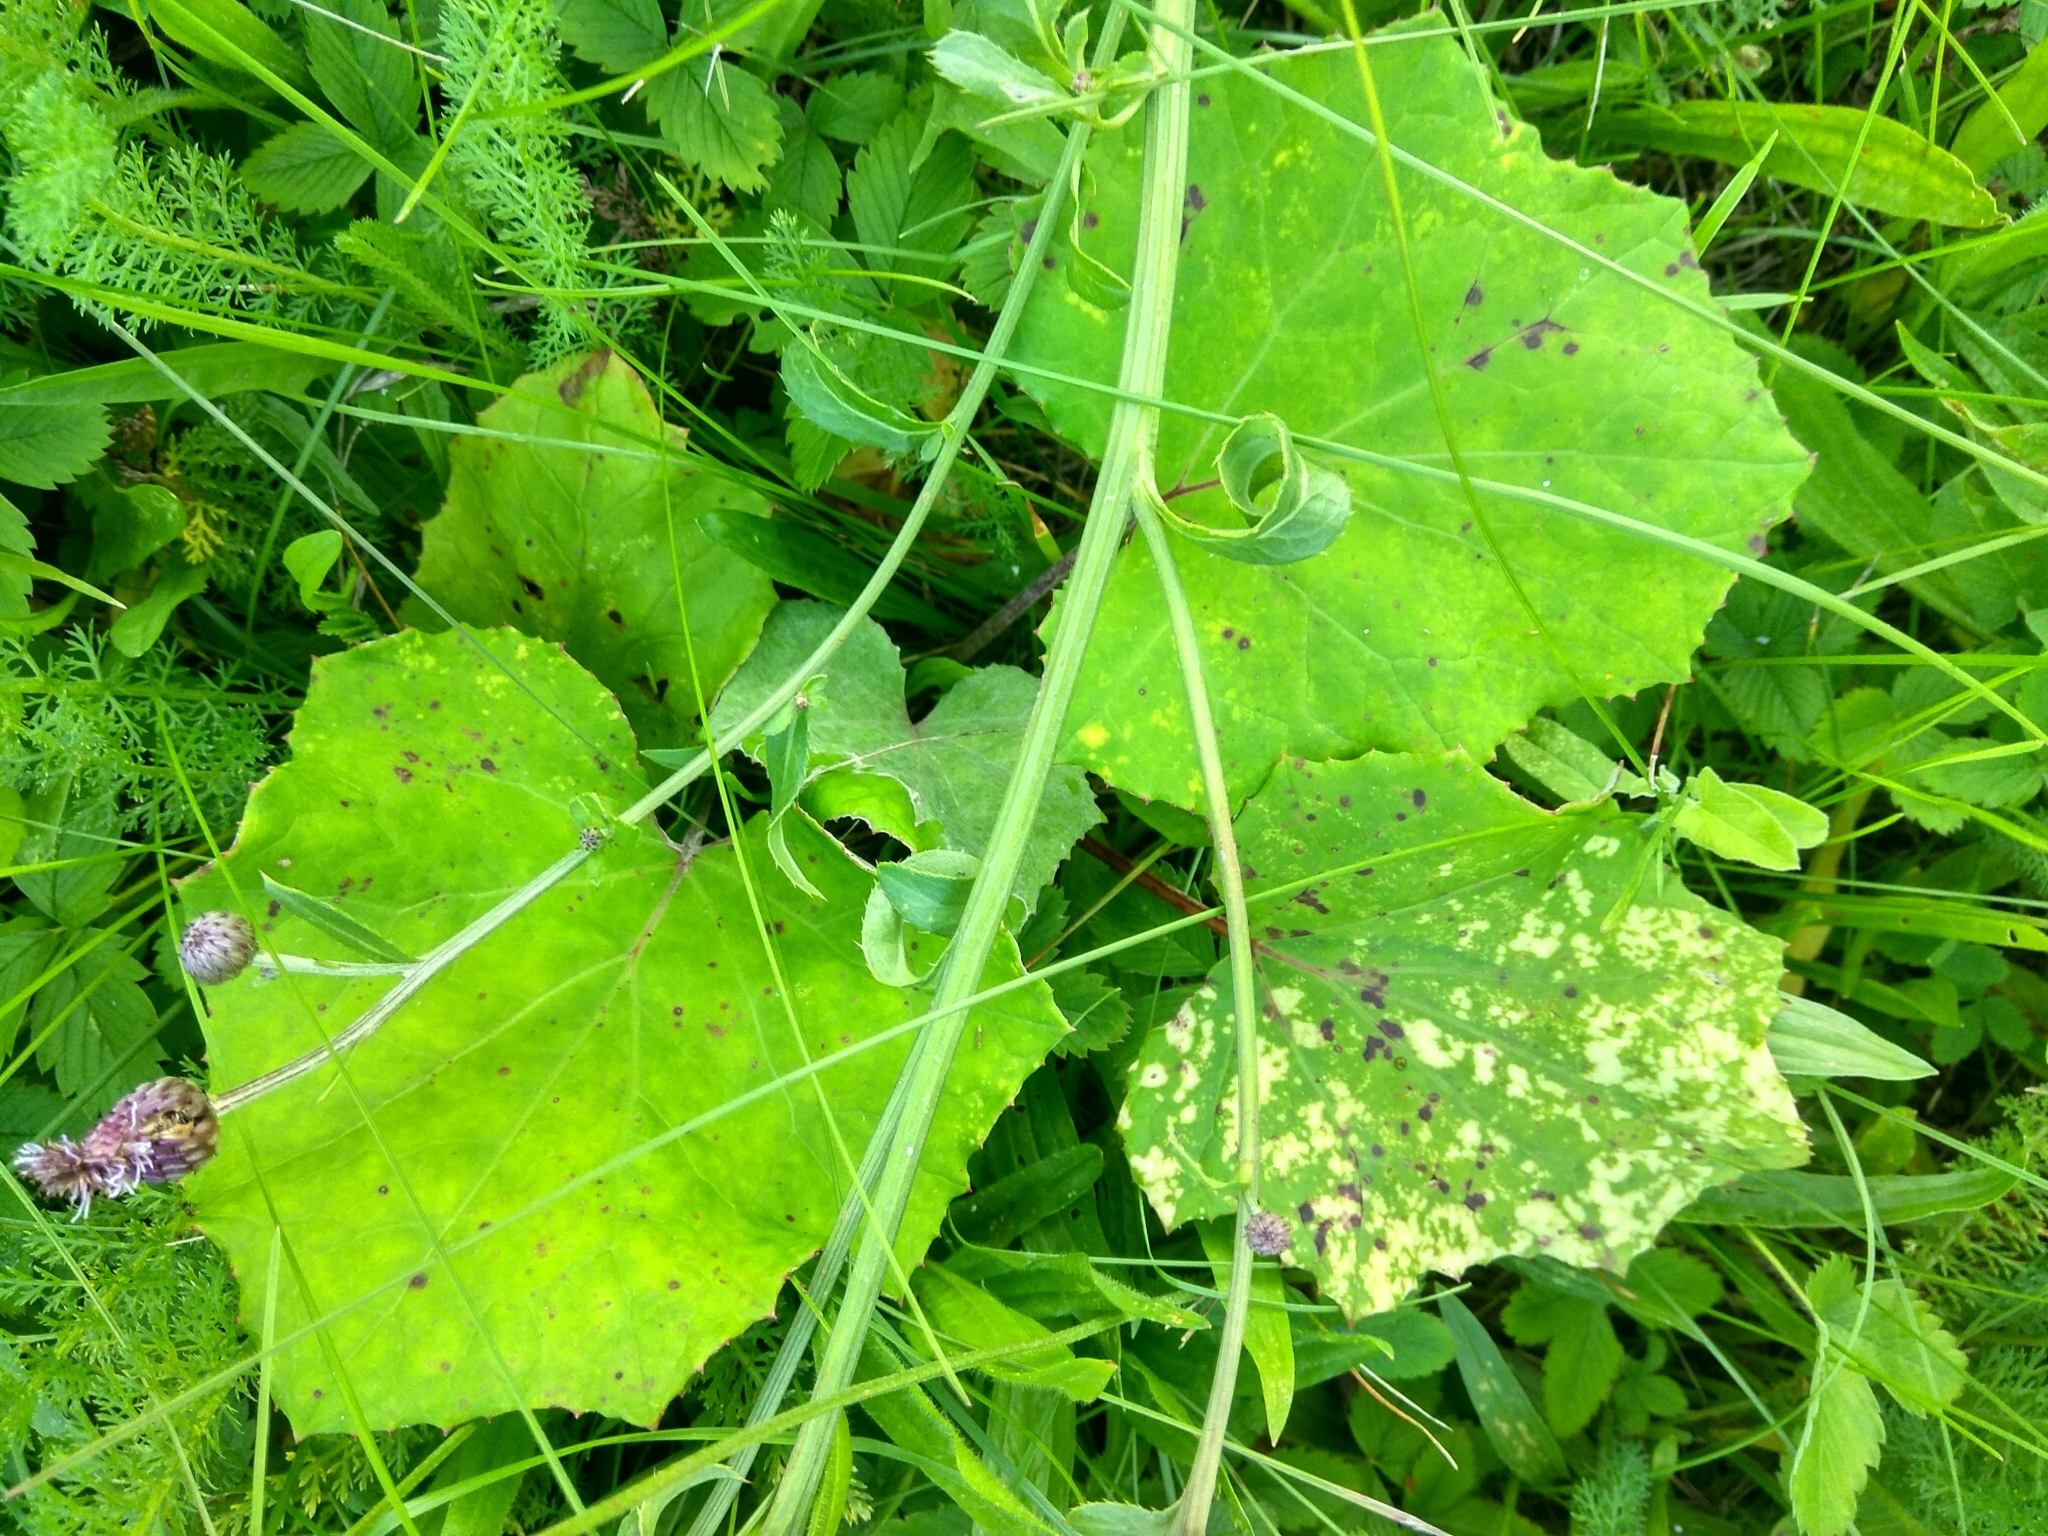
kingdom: Plantae
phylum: Tracheophyta
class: Magnoliopsida
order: Asterales
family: Asteraceae
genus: Tussilago
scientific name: Tussilago farfara
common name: Coltsfoot
